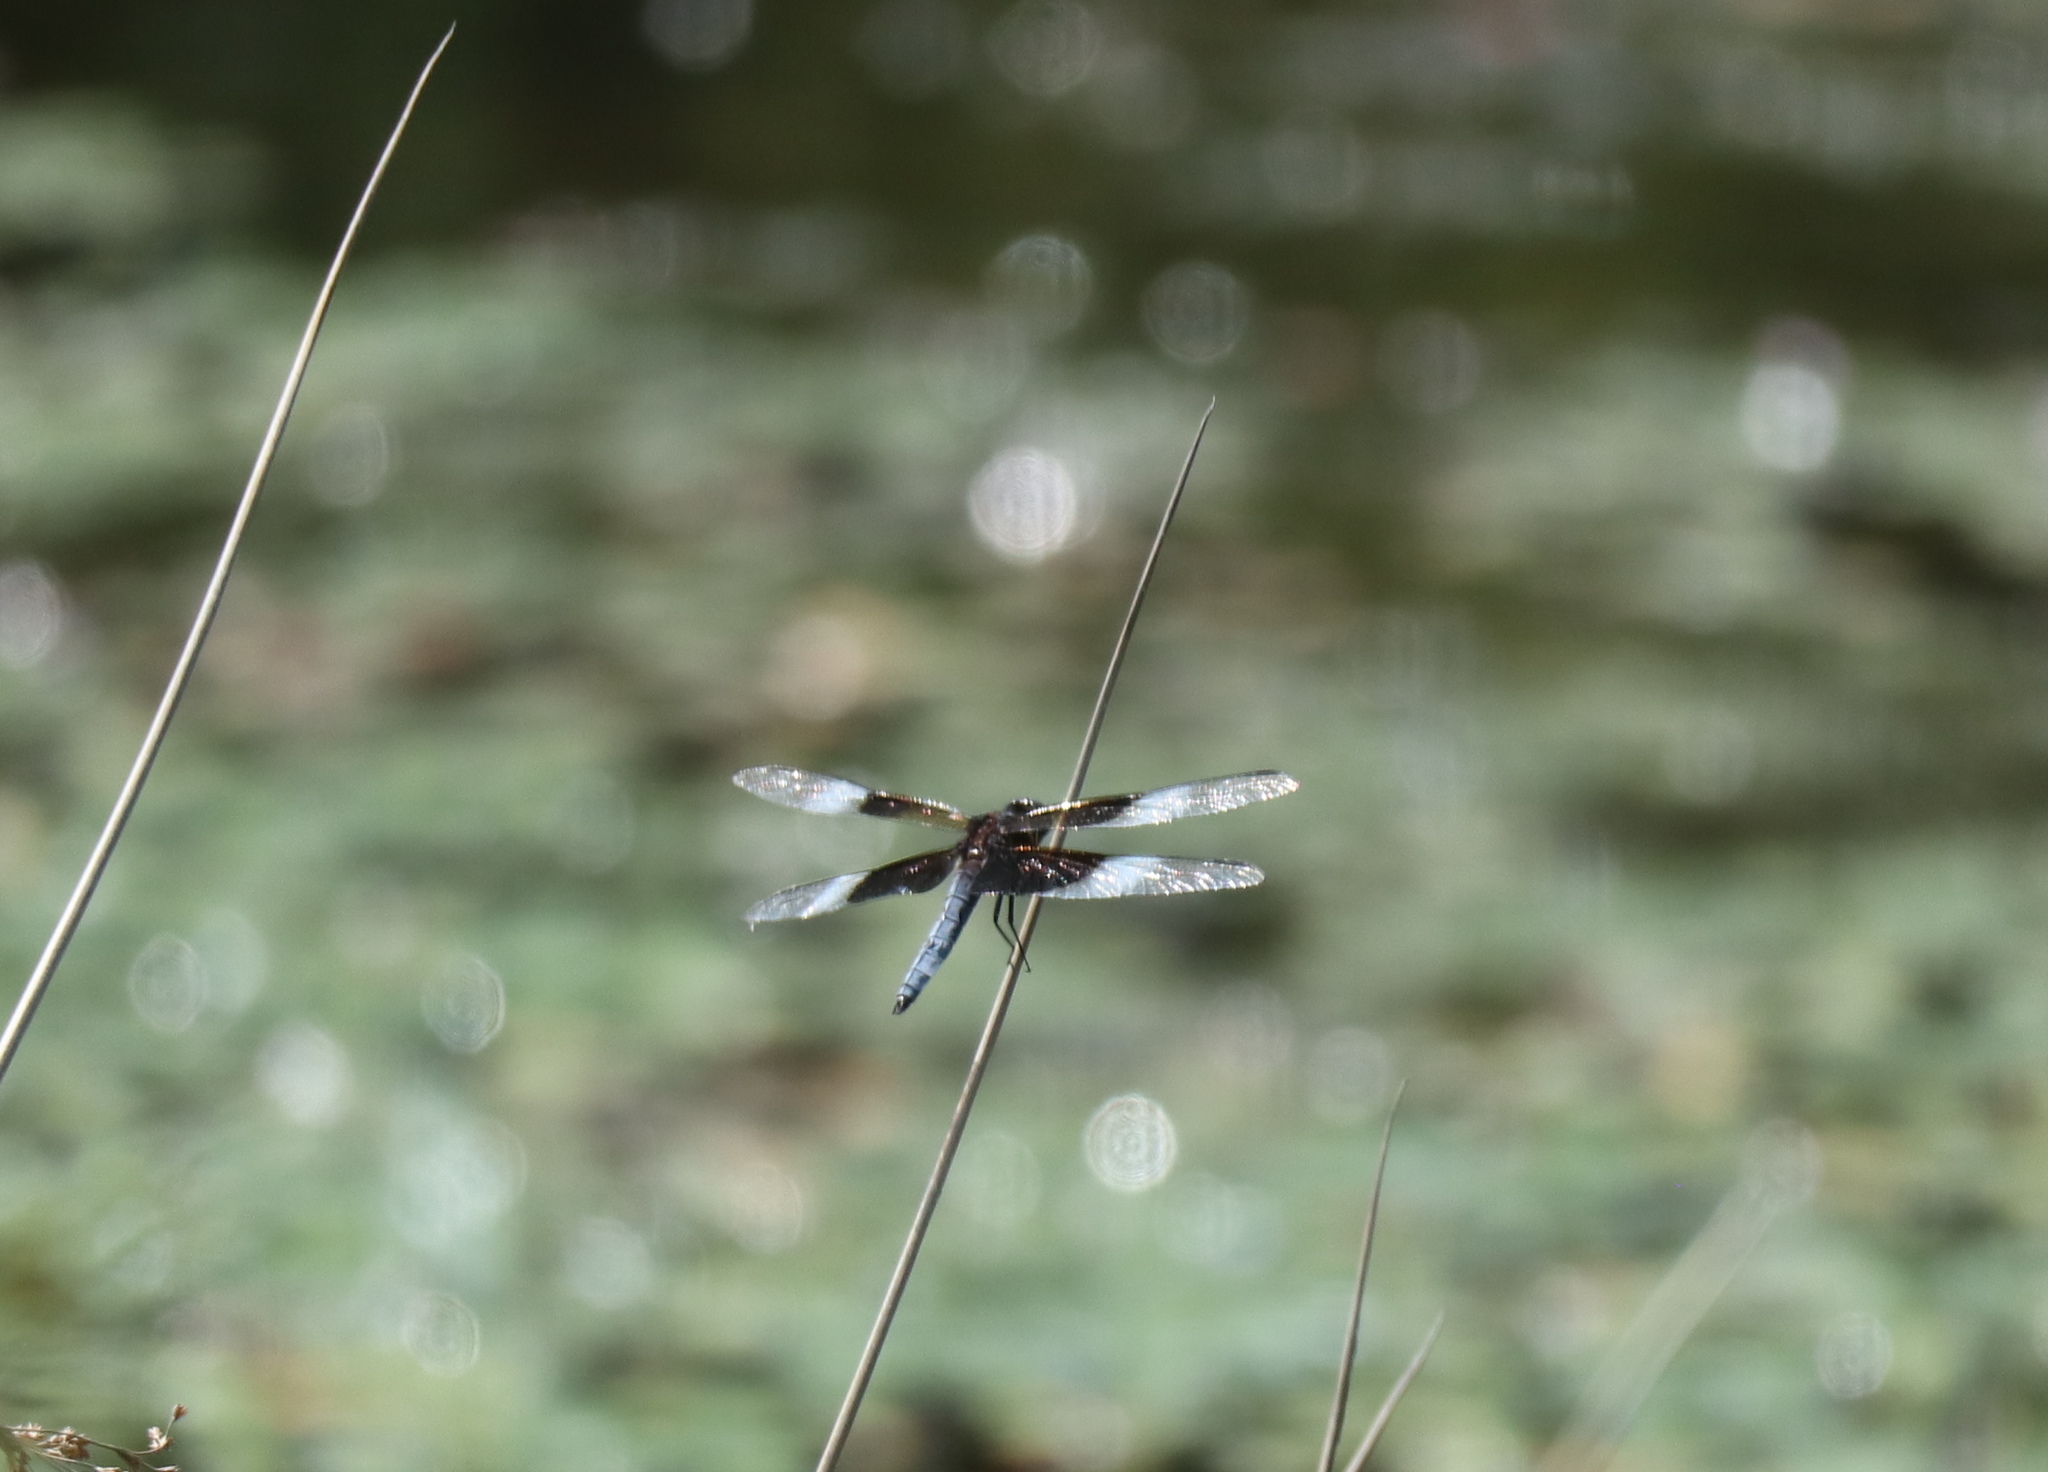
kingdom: Animalia
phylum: Arthropoda
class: Insecta
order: Odonata
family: Libellulidae
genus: Libellula
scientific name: Libellula luctuosa
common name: Widow skimmer
